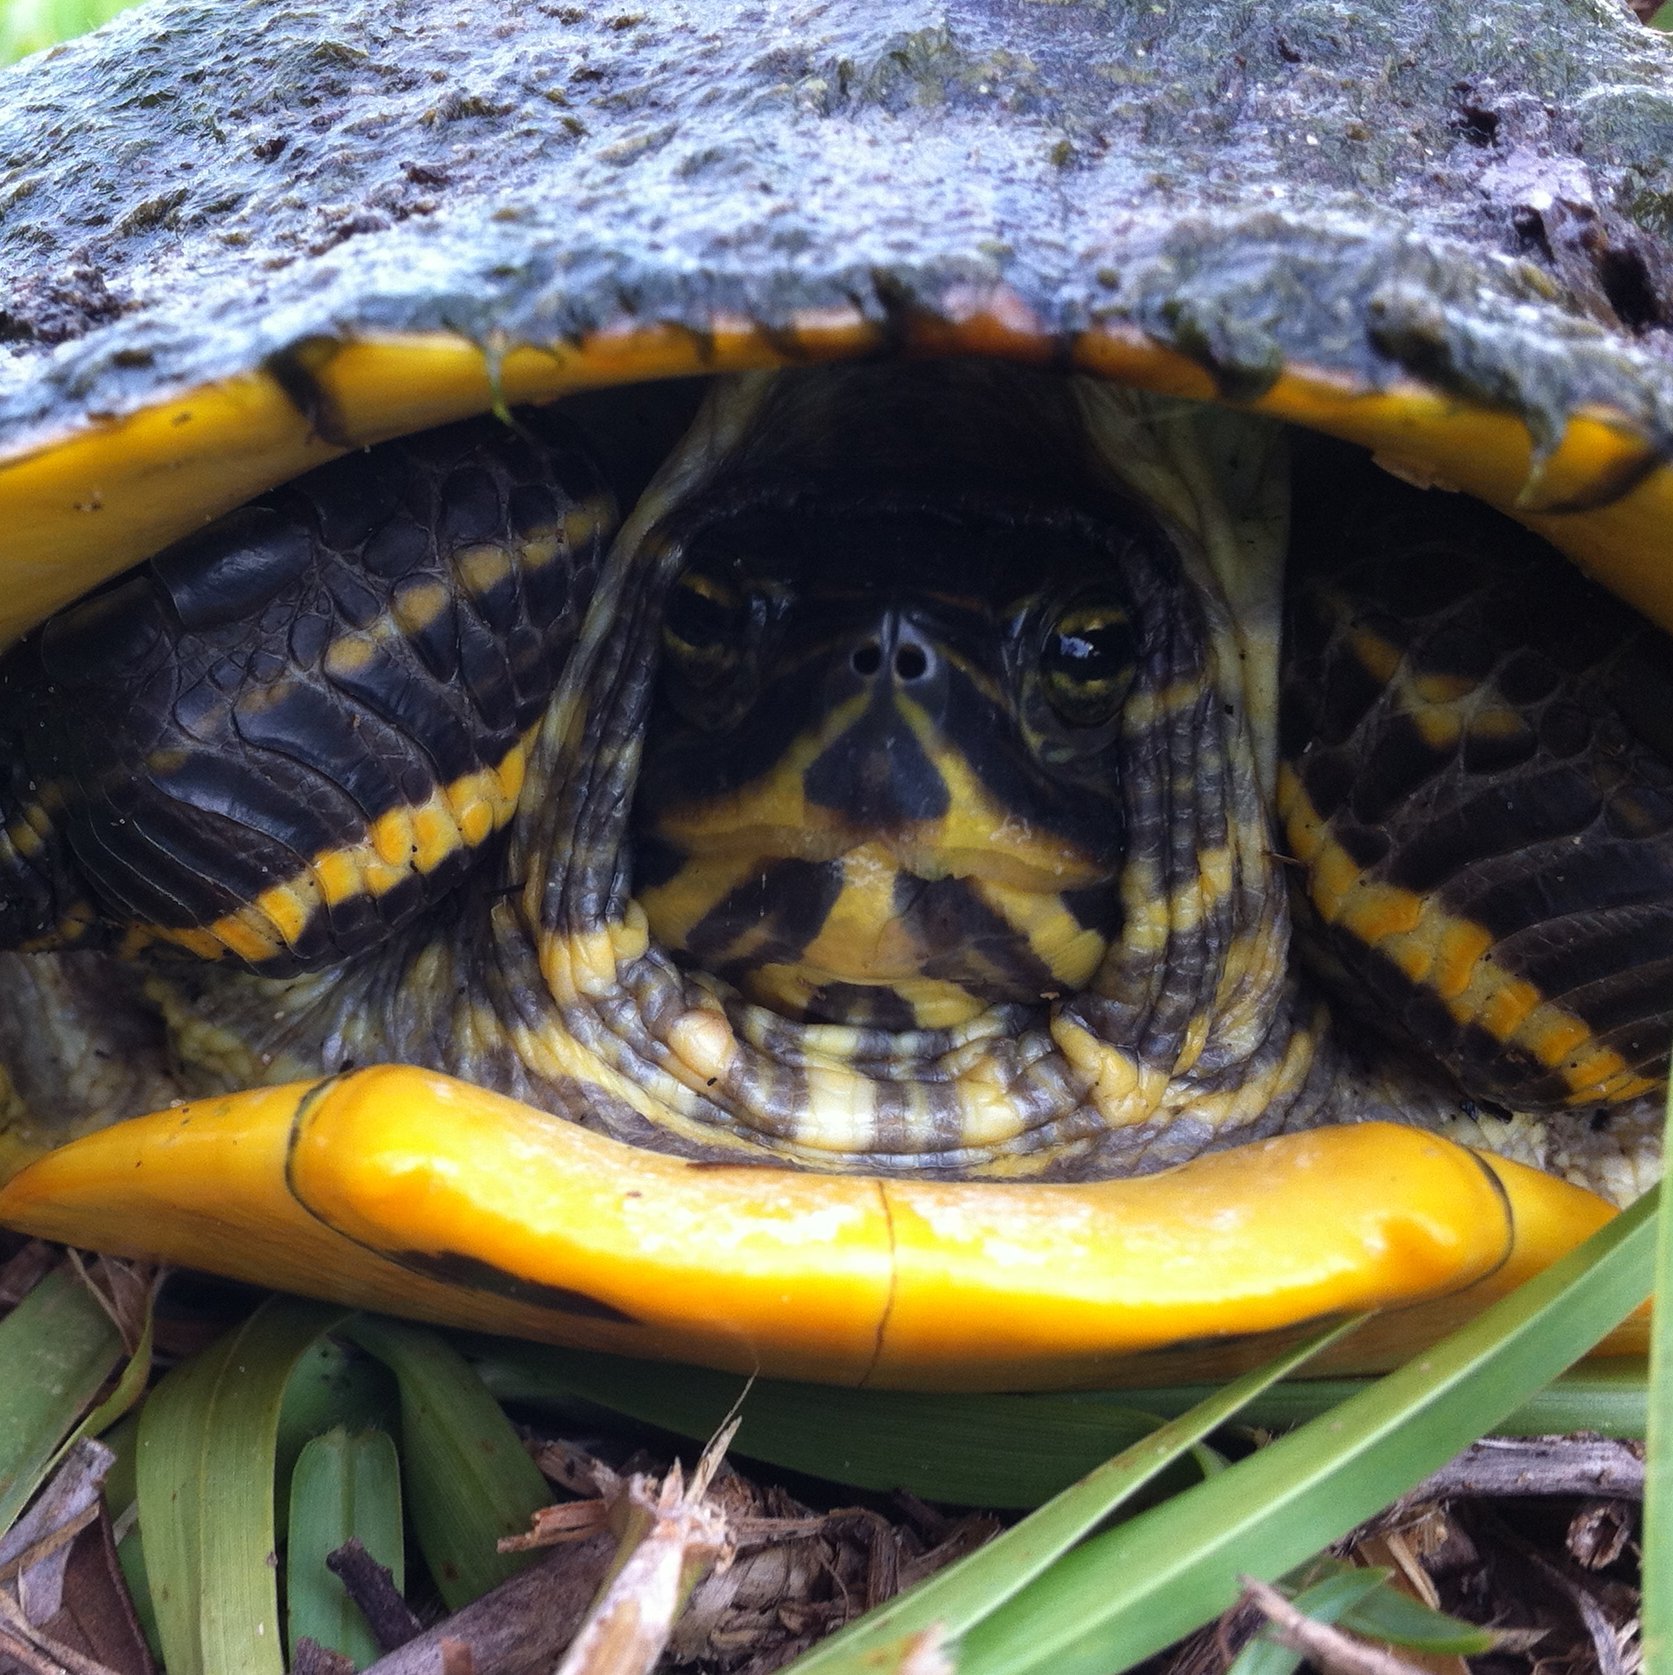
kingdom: Animalia
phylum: Chordata
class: Testudines
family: Emydidae
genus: Trachemys
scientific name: Trachemys scripta
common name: Slider
